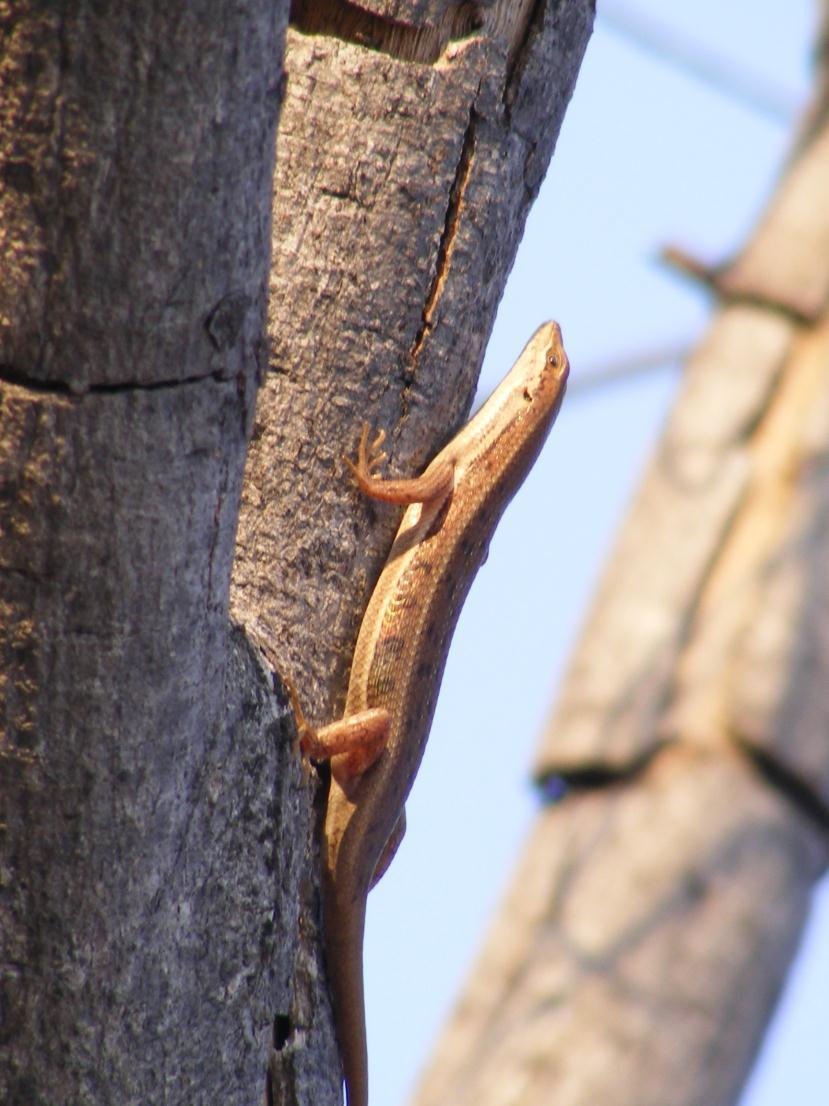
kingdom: Animalia
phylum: Chordata
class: Squamata
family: Scincidae
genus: Trachylepis
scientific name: Trachylepis varia
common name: Eastern variable skink
